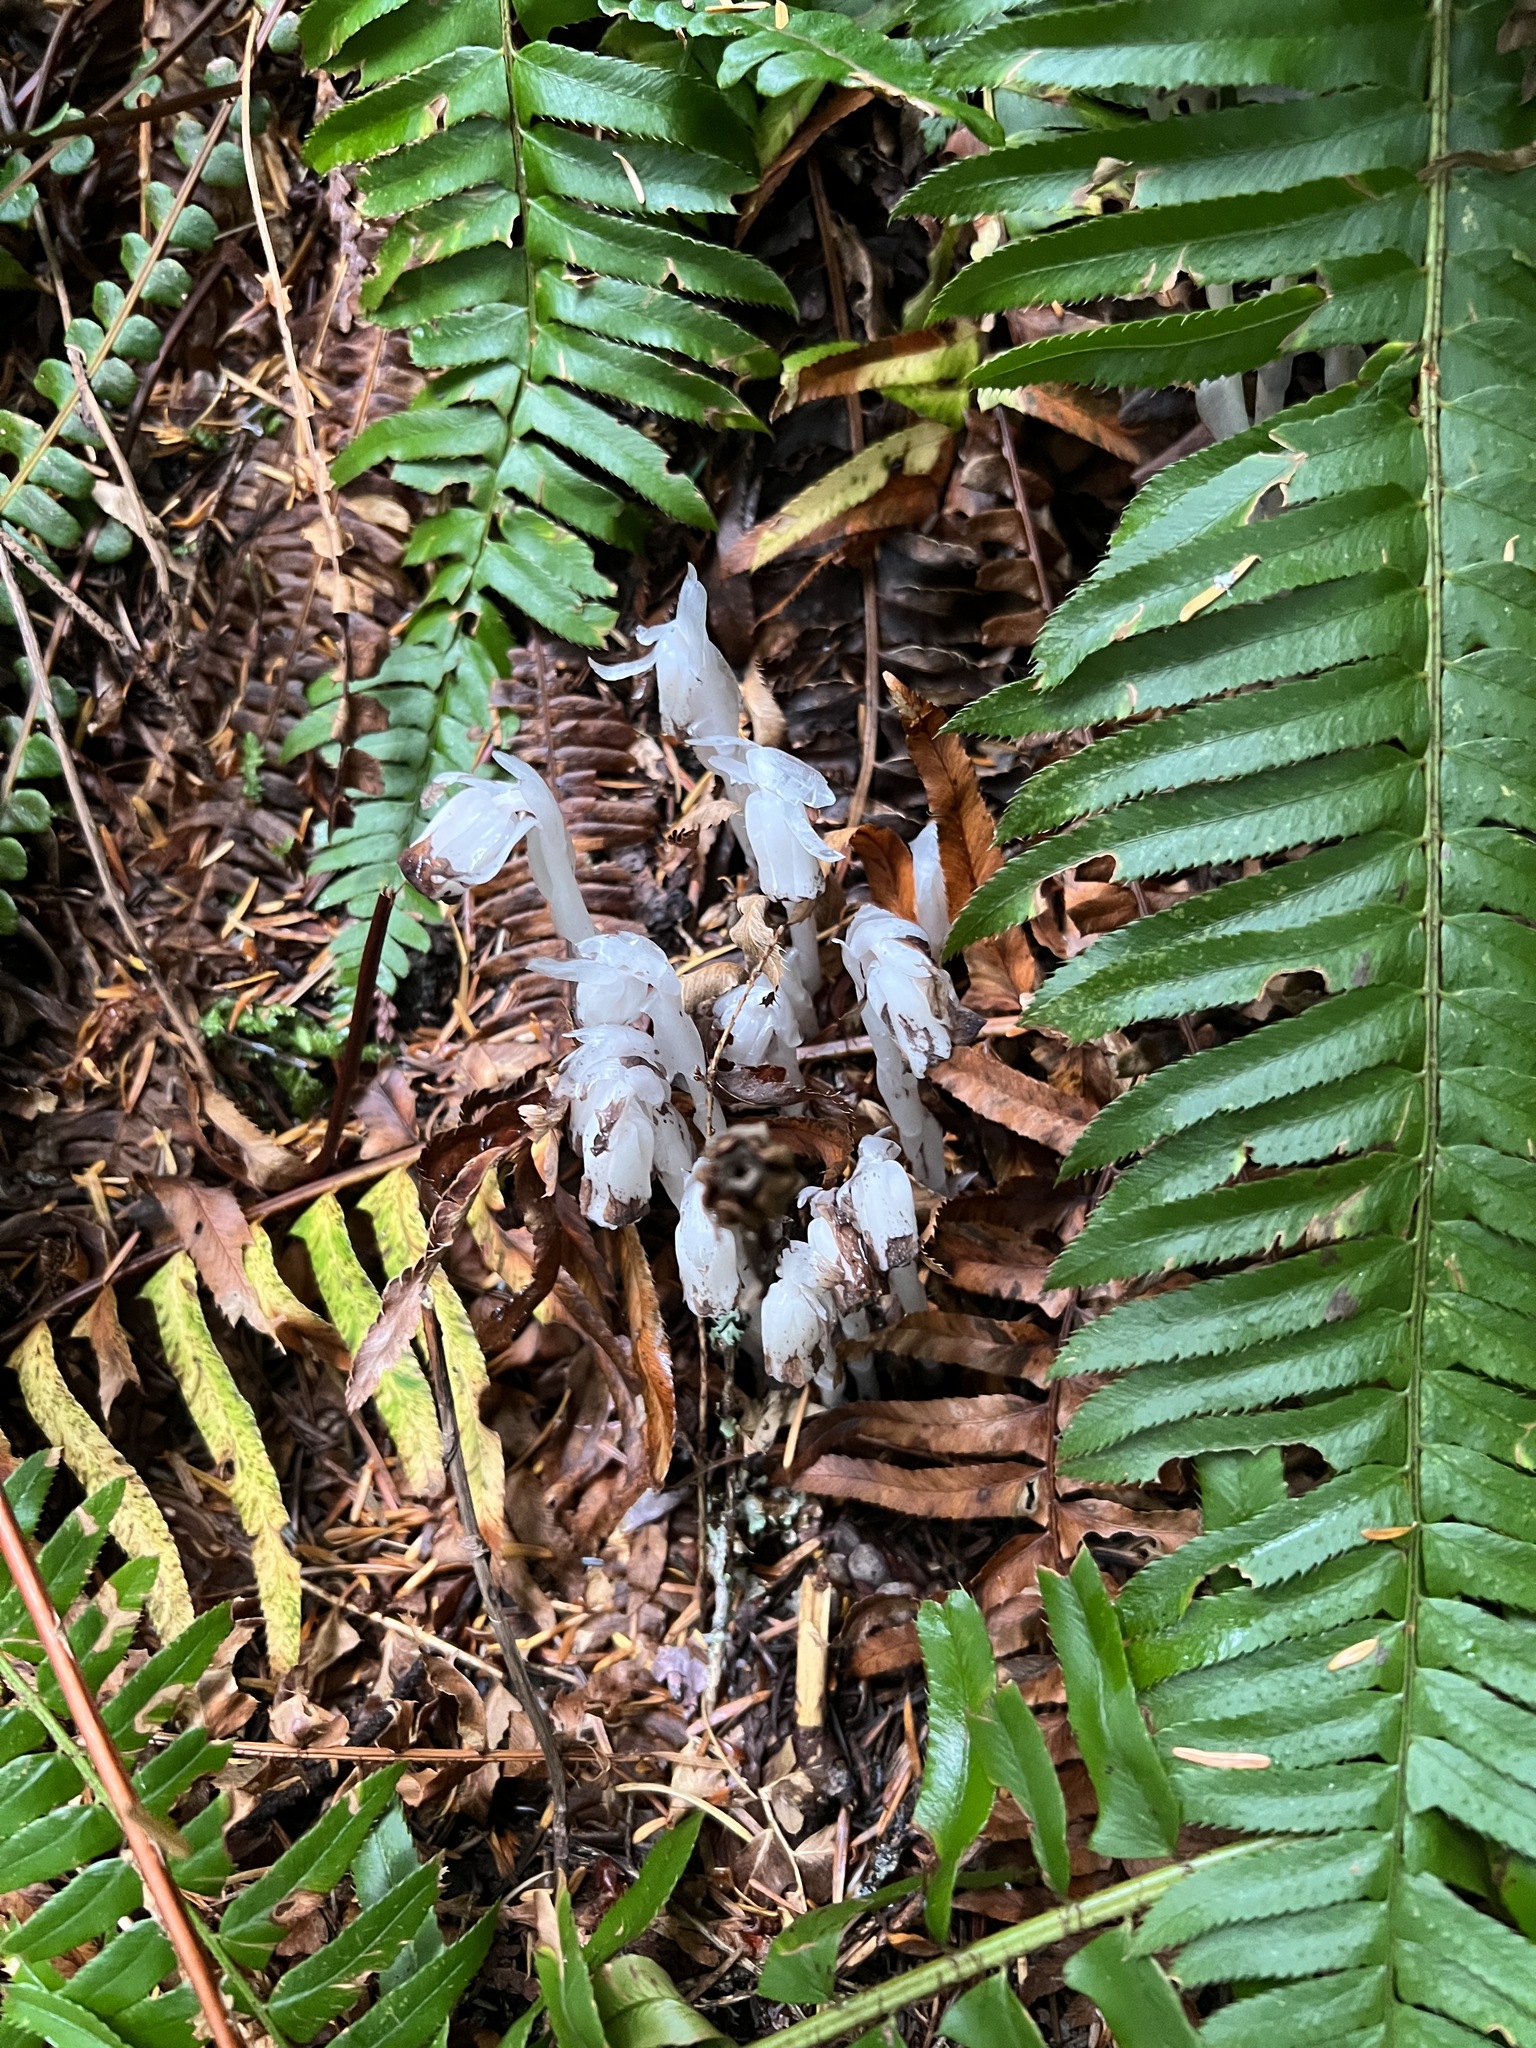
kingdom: Plantae
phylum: Tracheophyta
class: Magnoliopsida
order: Ericales
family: Ericaceae
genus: Monotropa
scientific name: Monotropa uniflora
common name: Convulsion root
